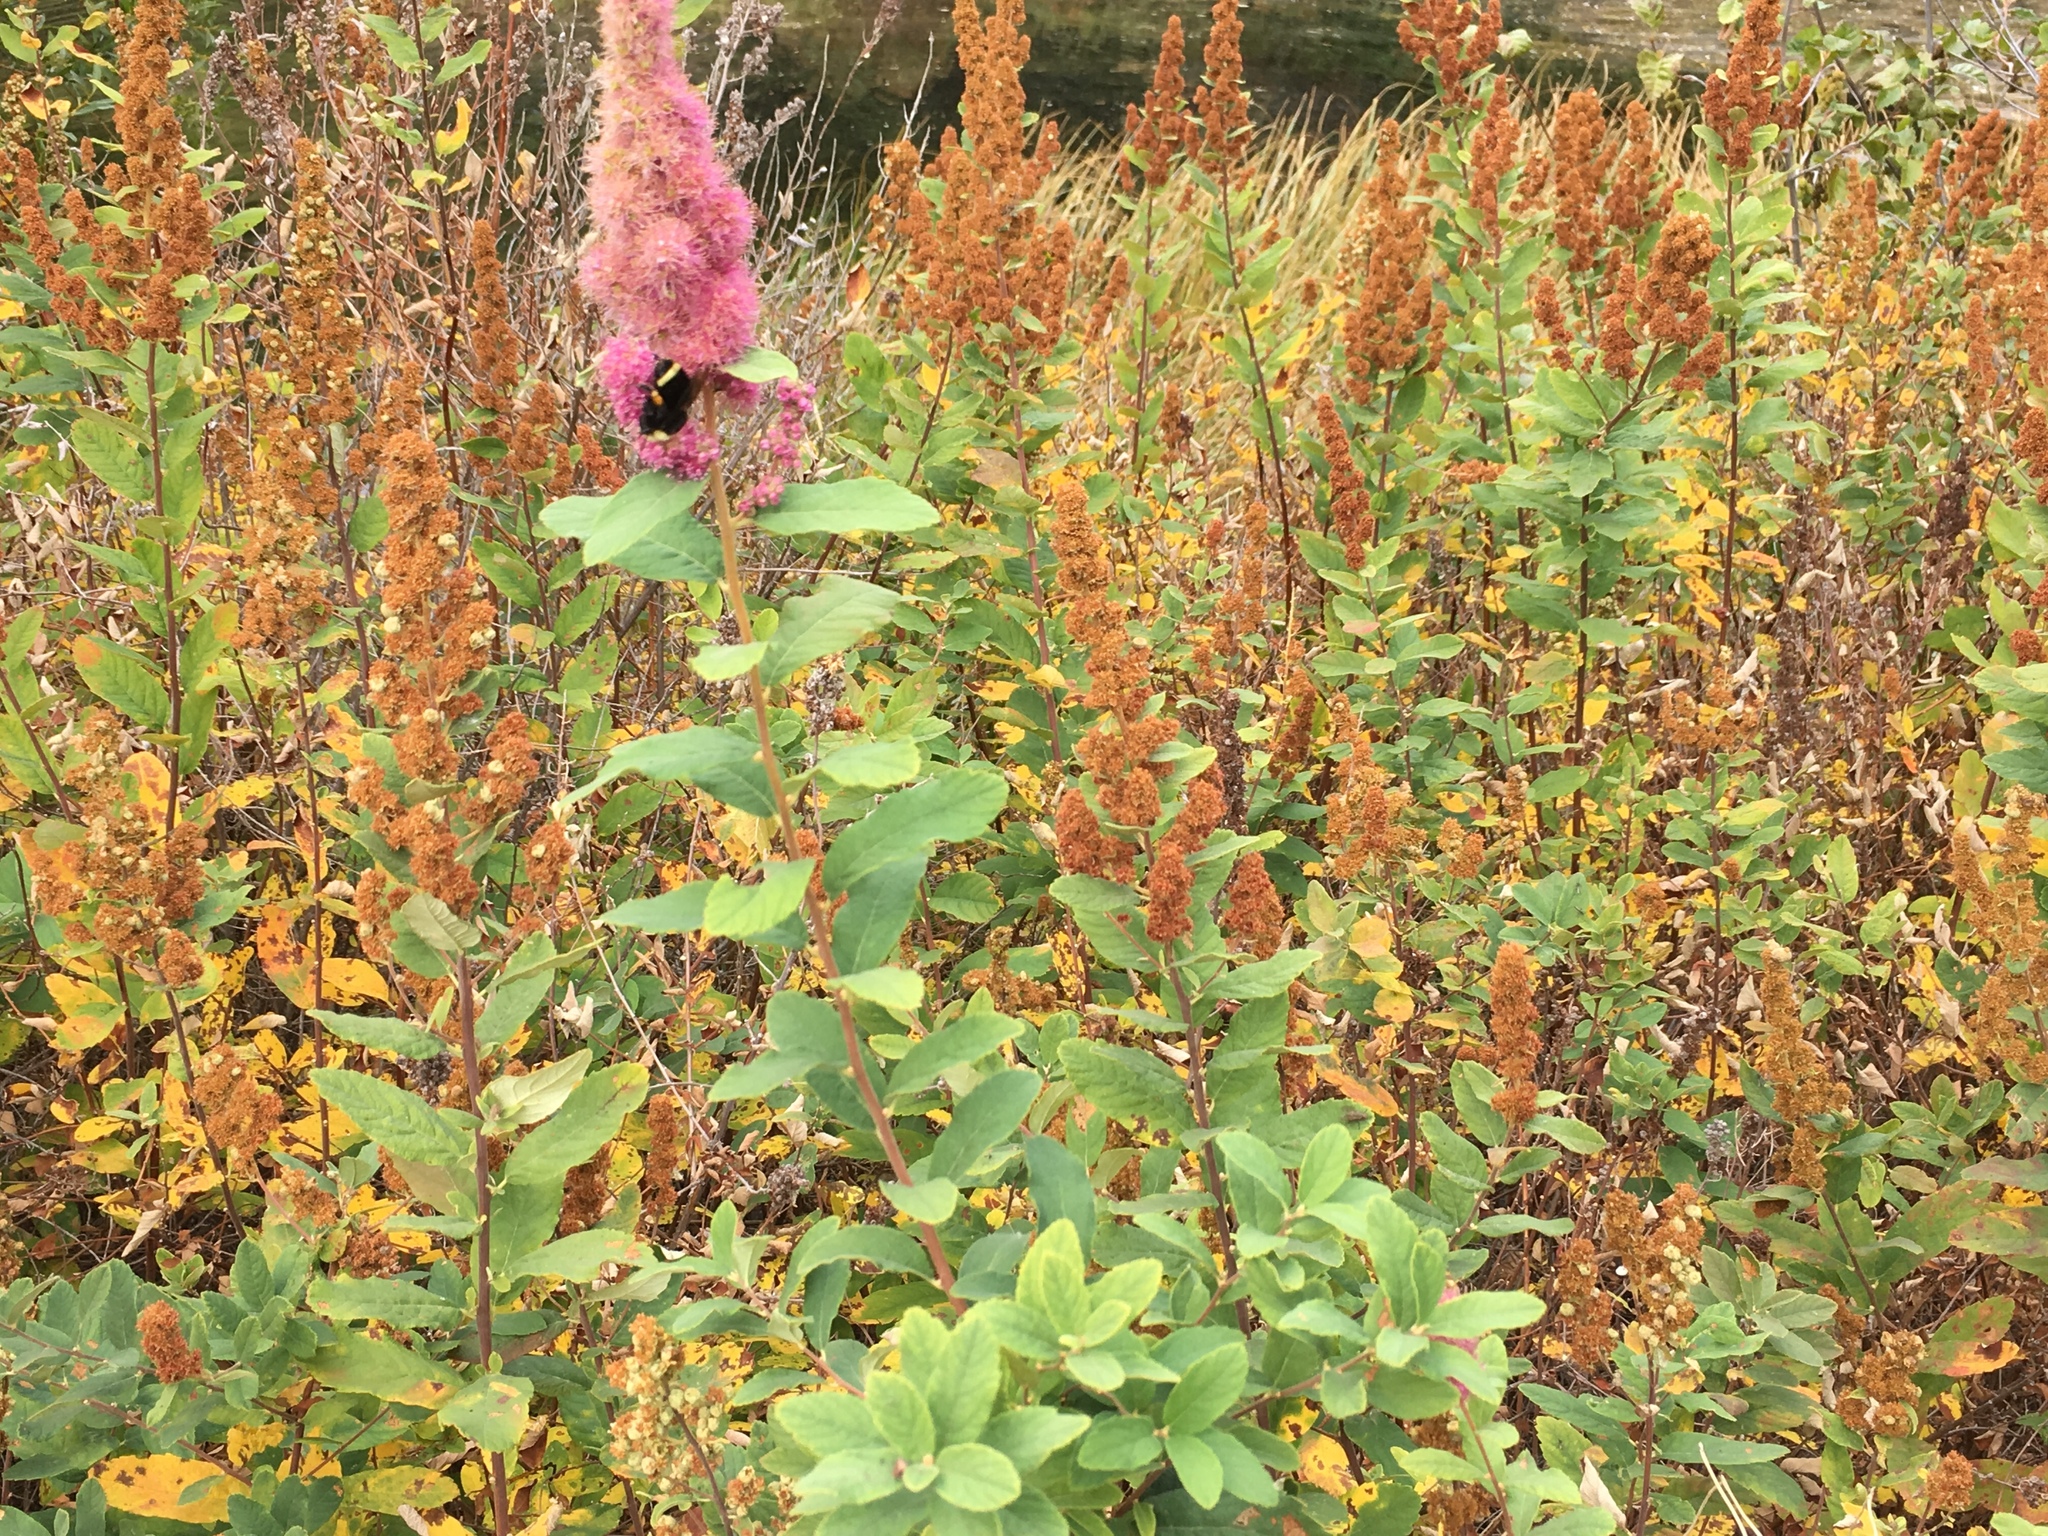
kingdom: Plantae
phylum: Tracheophyta
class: Magnoliopsida
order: Rosales
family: Rosaceae
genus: Spiraea
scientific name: Spiraea douglasii
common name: Steeplebush
